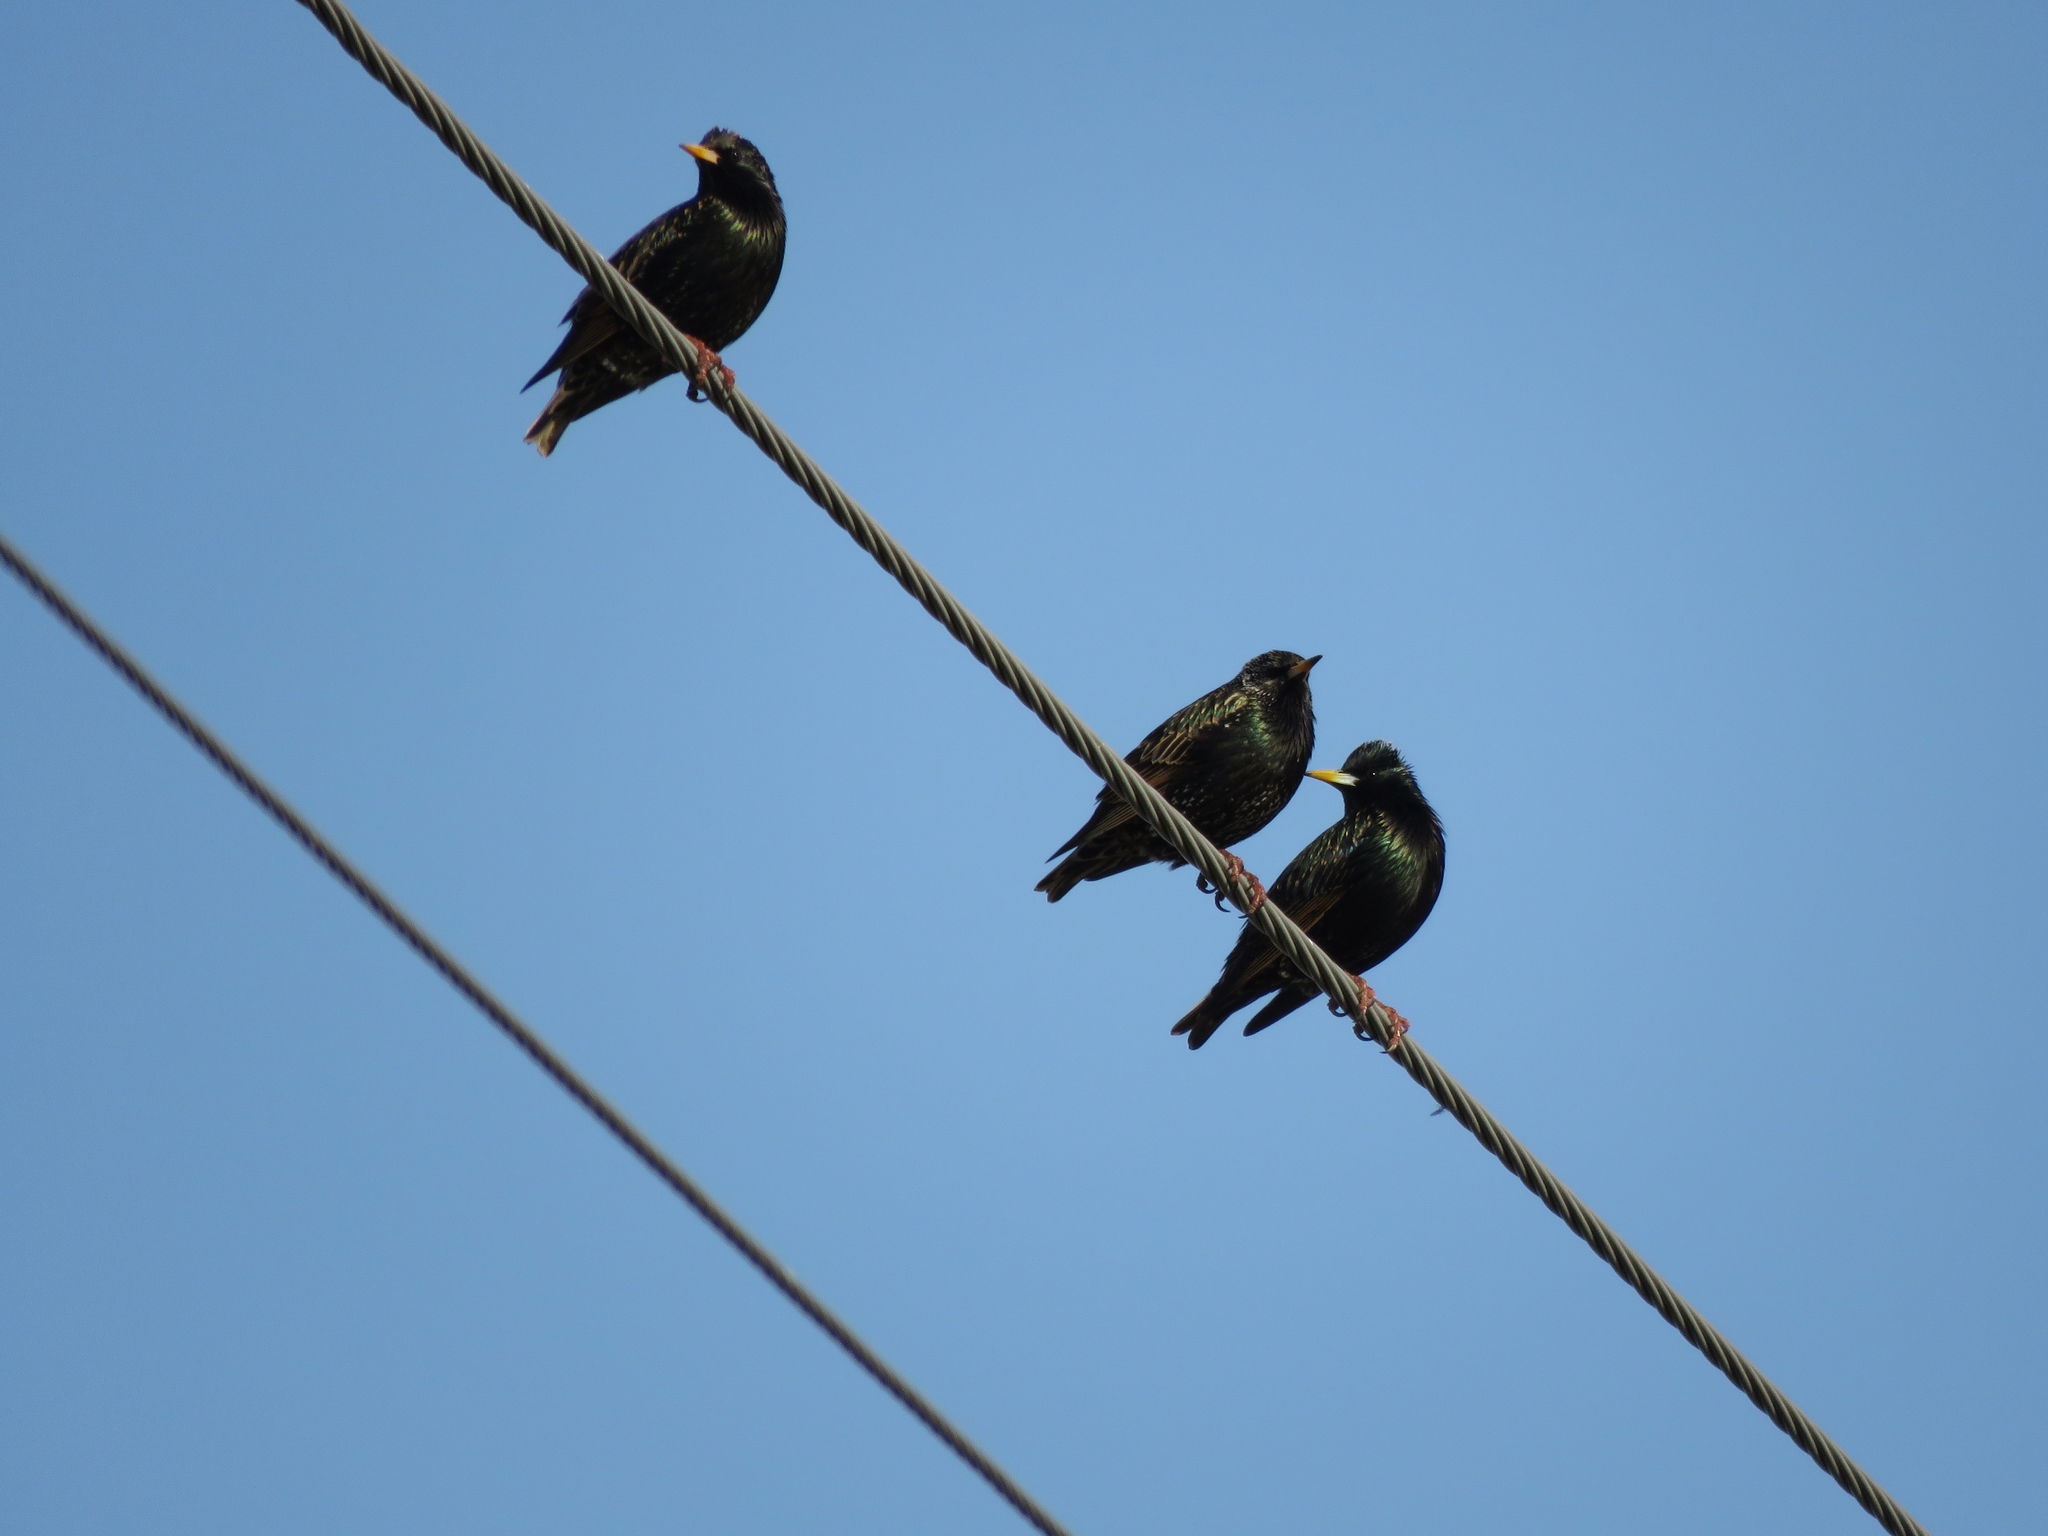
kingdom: Animalia
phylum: Chordata
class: Aves
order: Passeriformes
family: Sturnidae
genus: Sturnus
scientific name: Sturnus vulgaris
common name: Common starling
